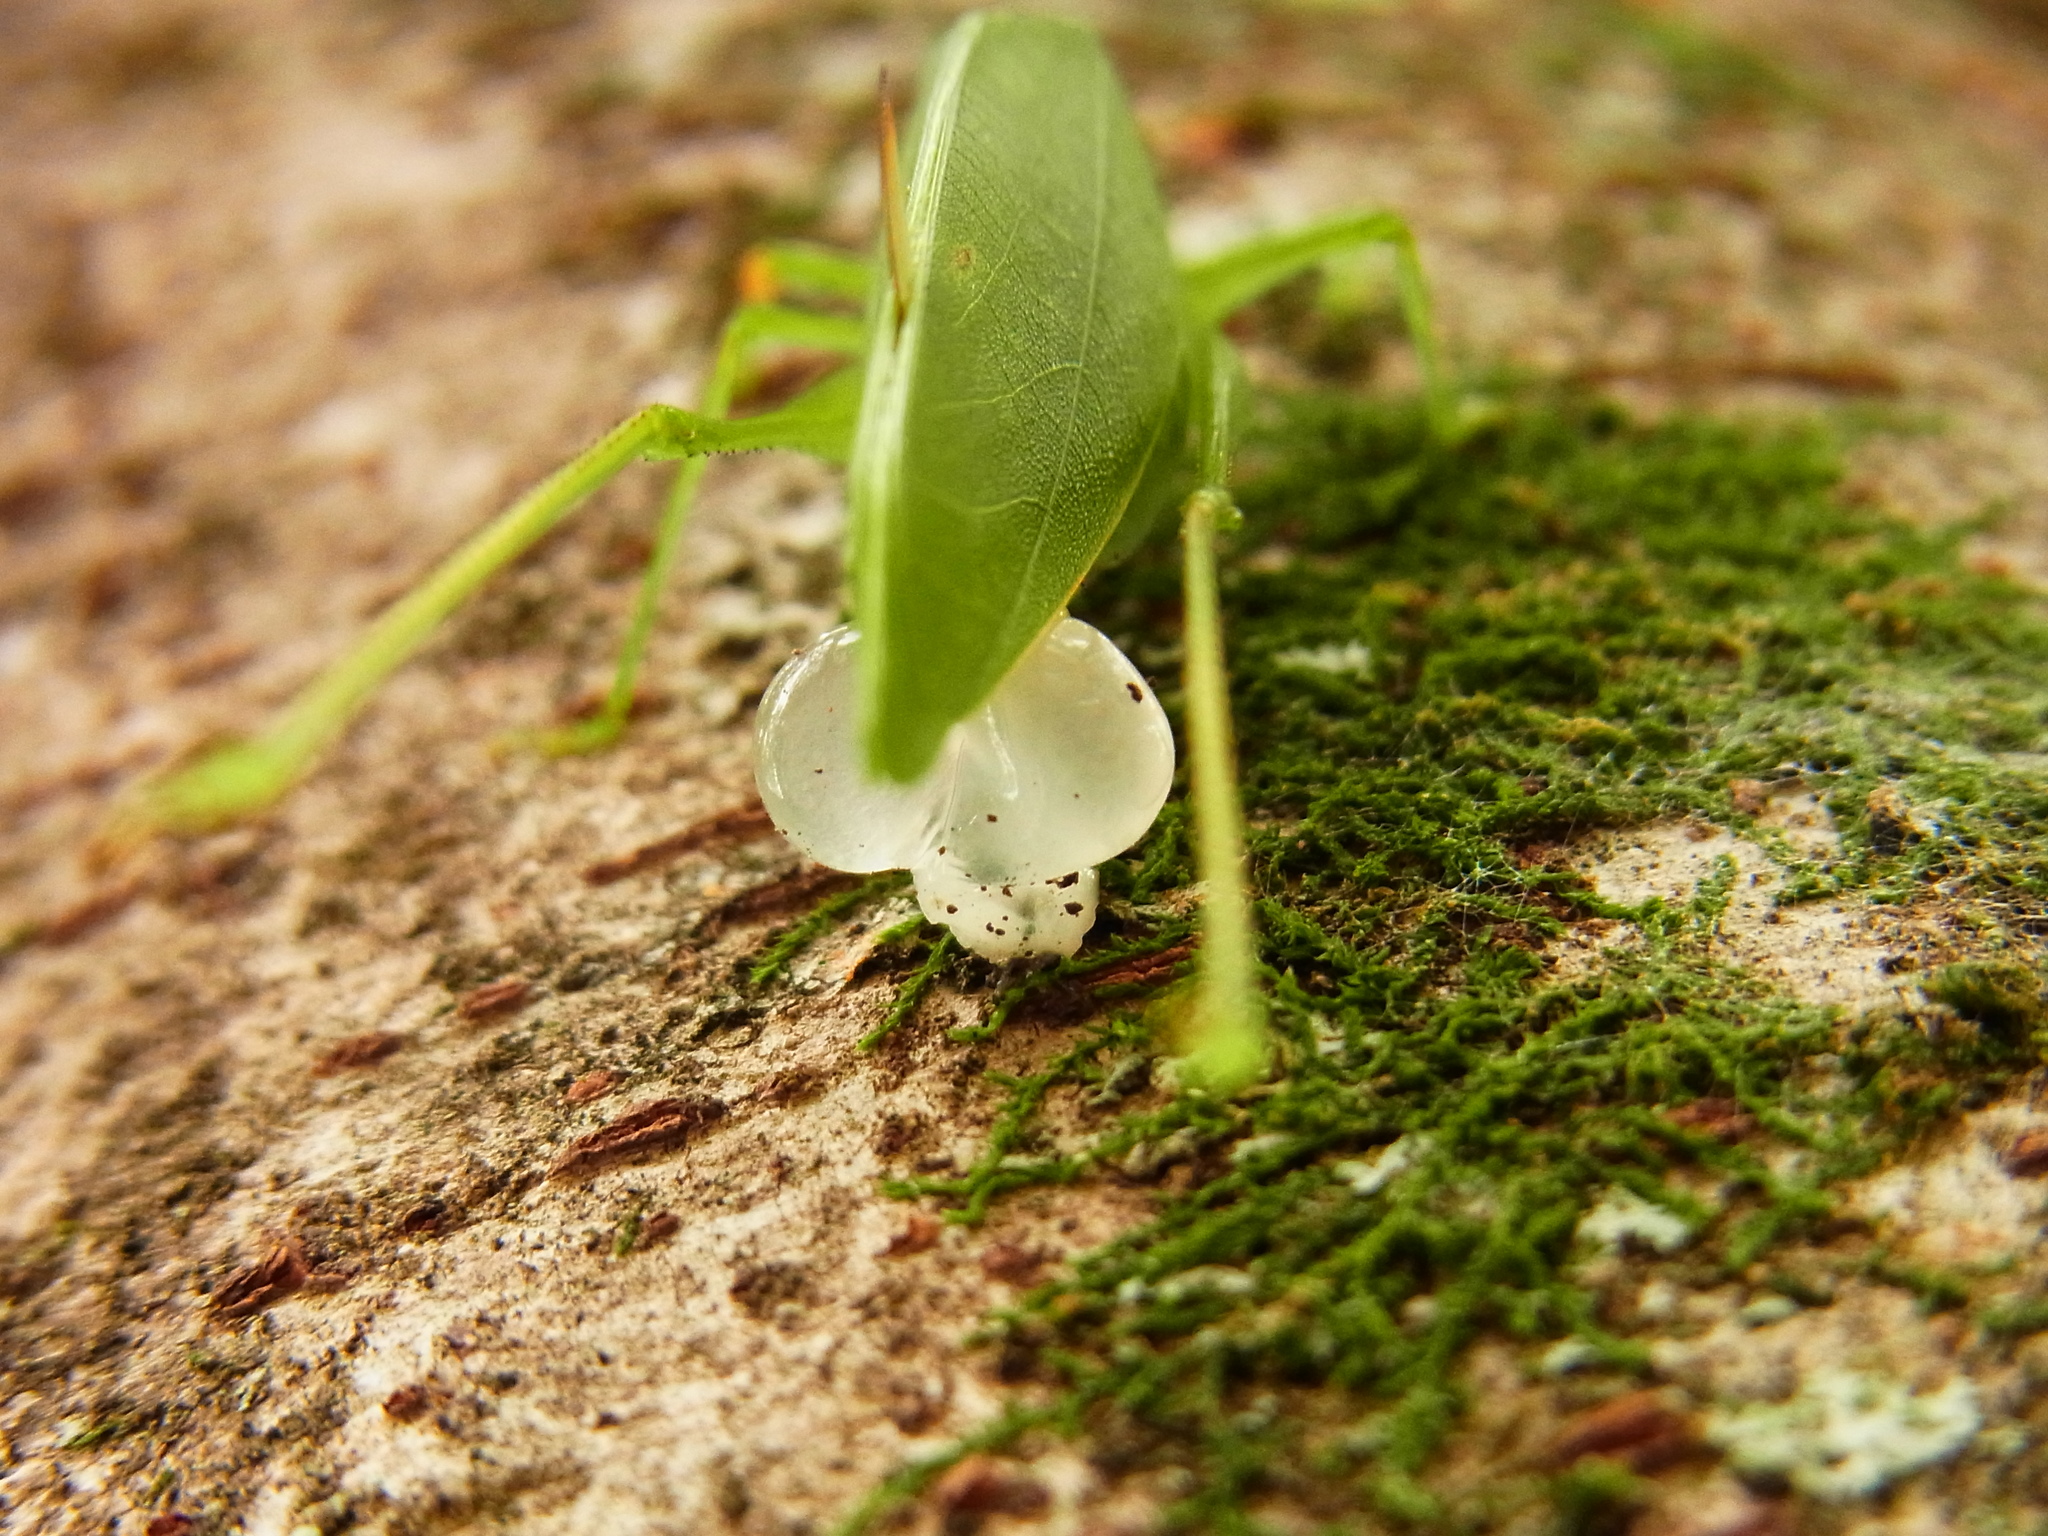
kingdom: Animalia
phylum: Arthropoda
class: Insecta
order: Orthoptera
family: Tettigoniidae
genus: Phaulula
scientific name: Phaulula macilenta
